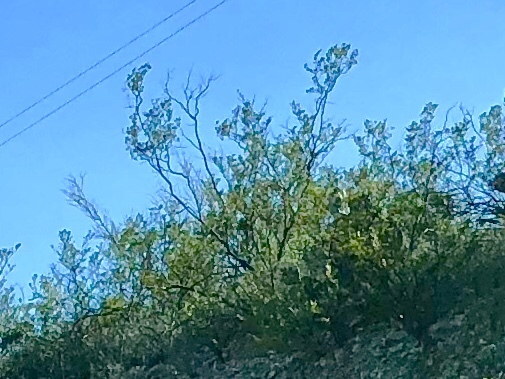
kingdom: Plantae
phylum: Tracheophyta
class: Magnoliopsida
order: Zygophyllales
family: Zygophyllaceae
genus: Larrea
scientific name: Larrea tridentata
